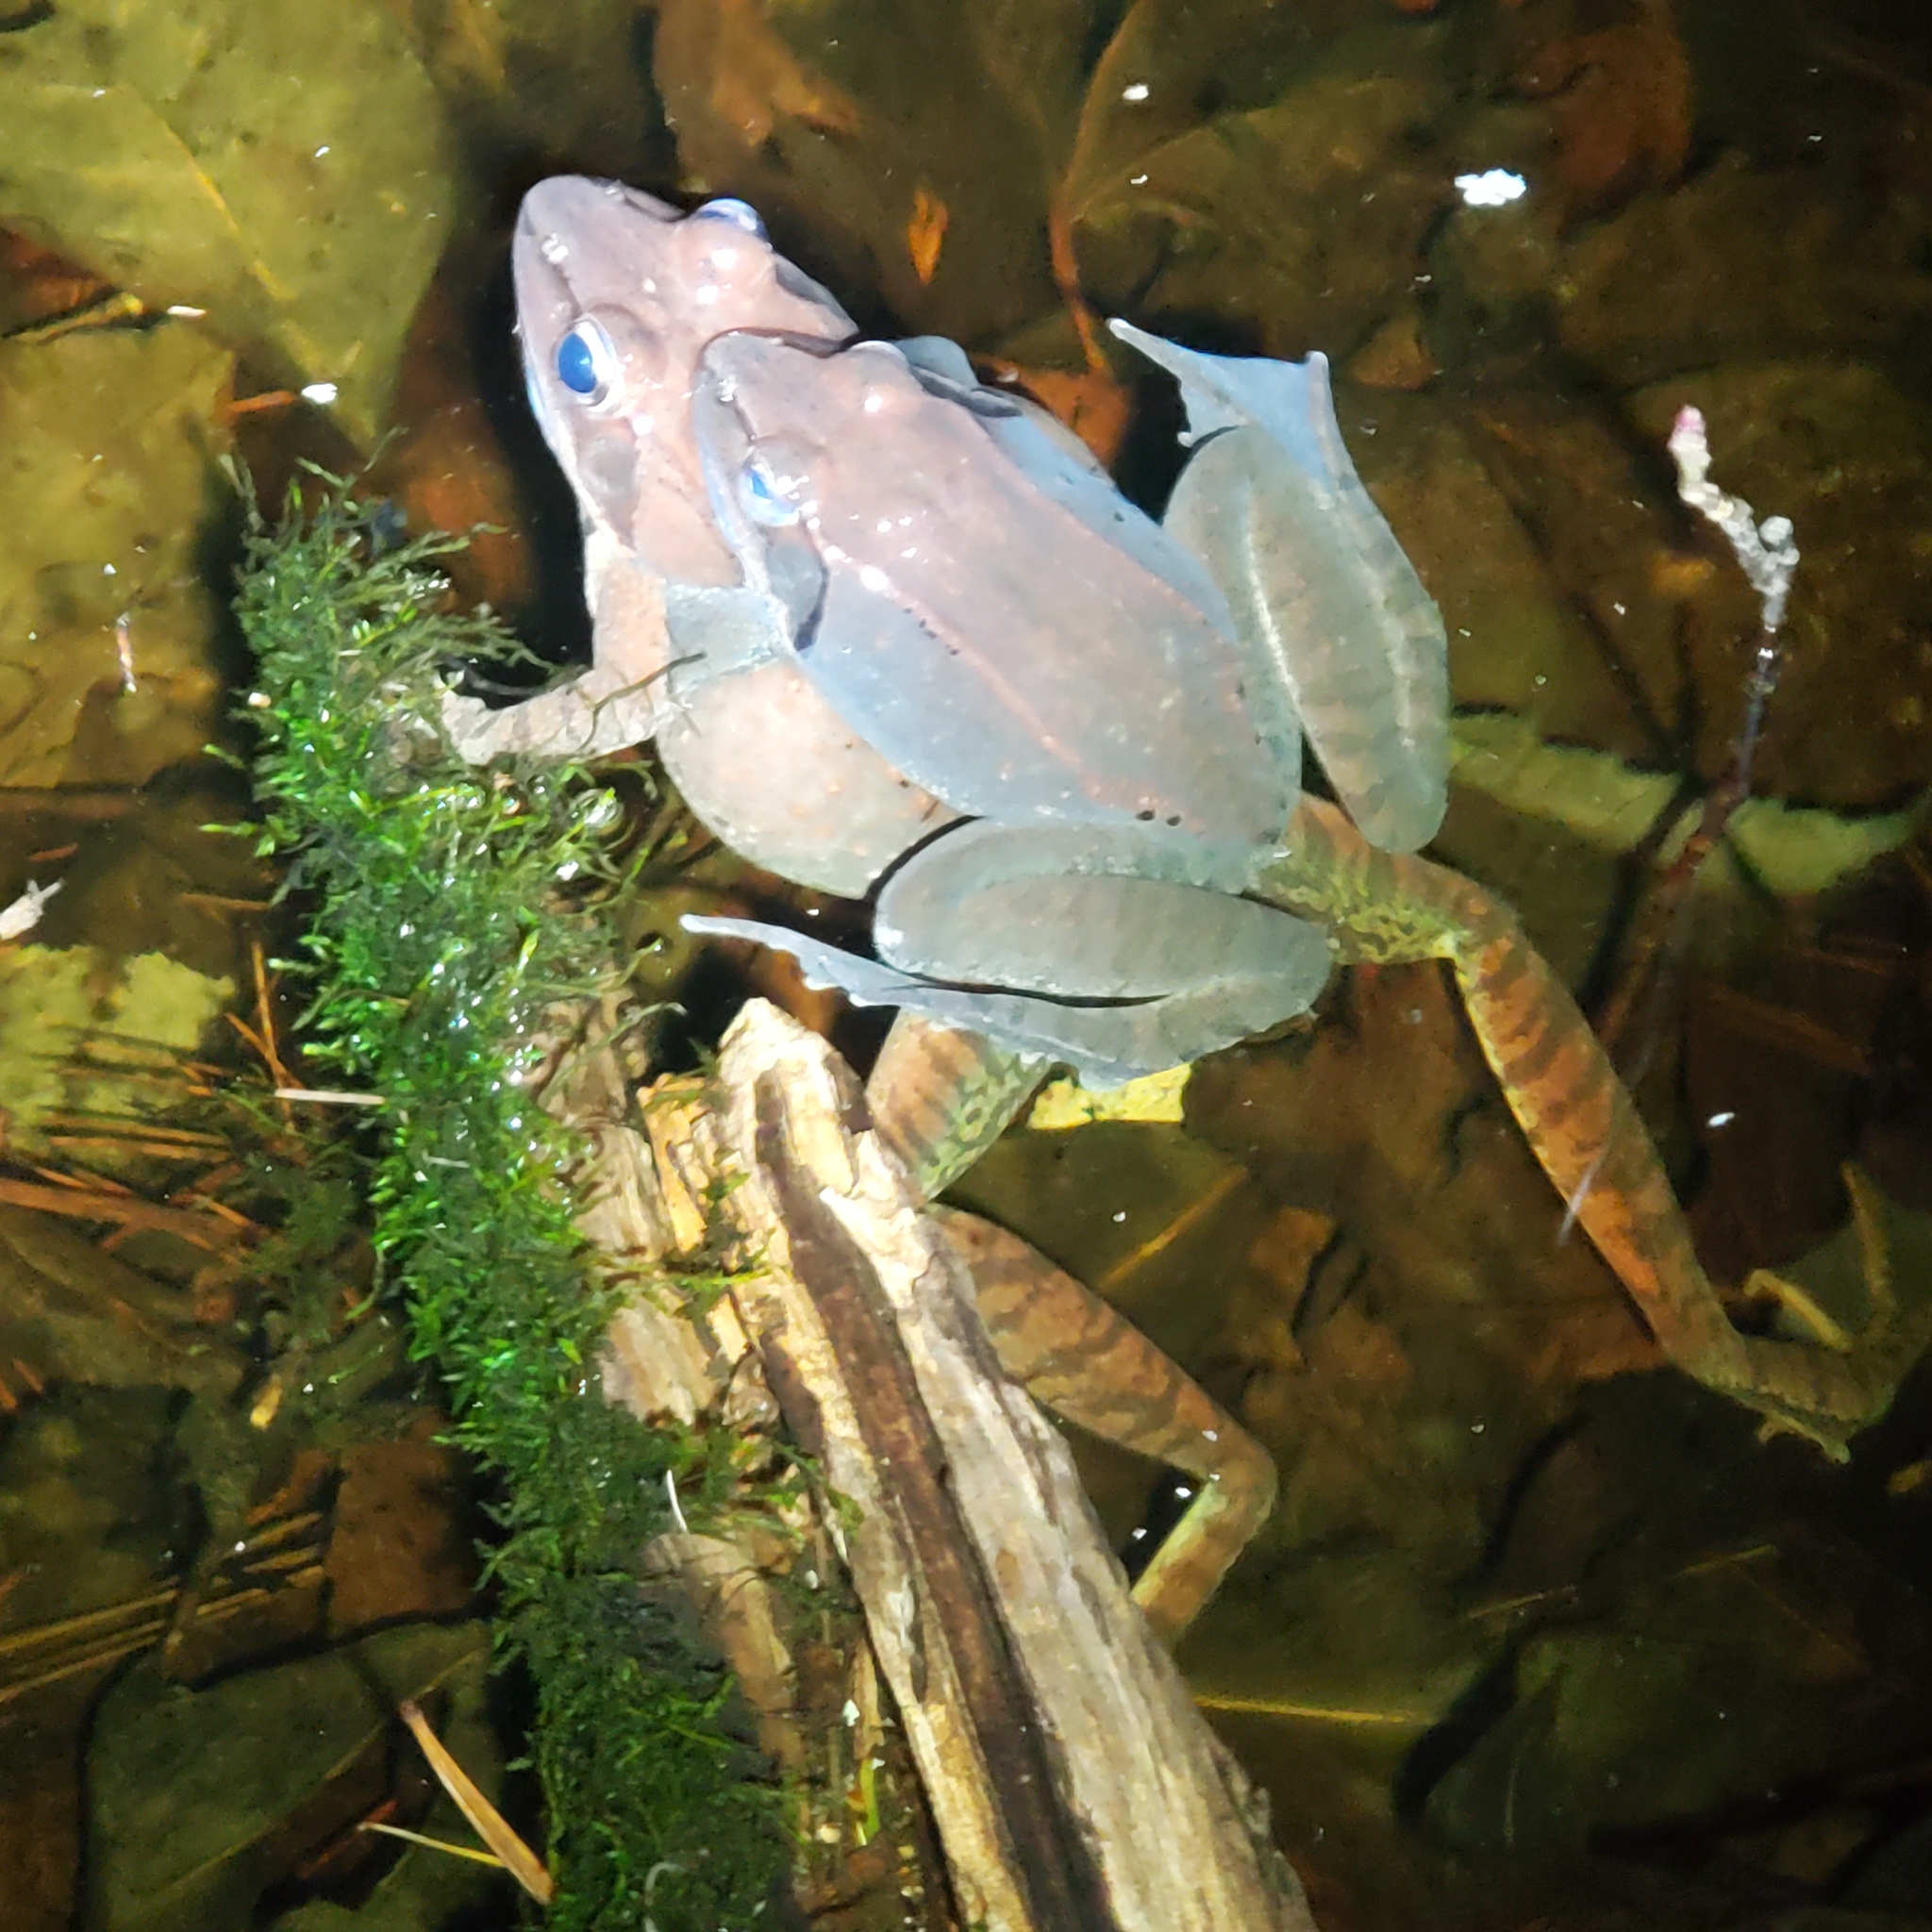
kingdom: Animalia
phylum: Chordata
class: Amphibia
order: Anura
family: Ranidae
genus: Lithobates
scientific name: Lithobates sylvaticus
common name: Wood frog
